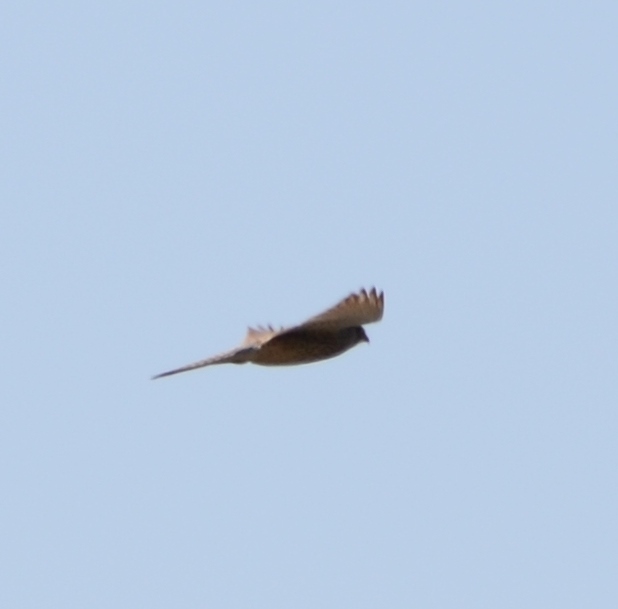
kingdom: Animalia
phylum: Chordata
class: Aves
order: Falconiformes
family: Falconidae
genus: Falco
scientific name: Falco tinnunculus
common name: Common kestrel
